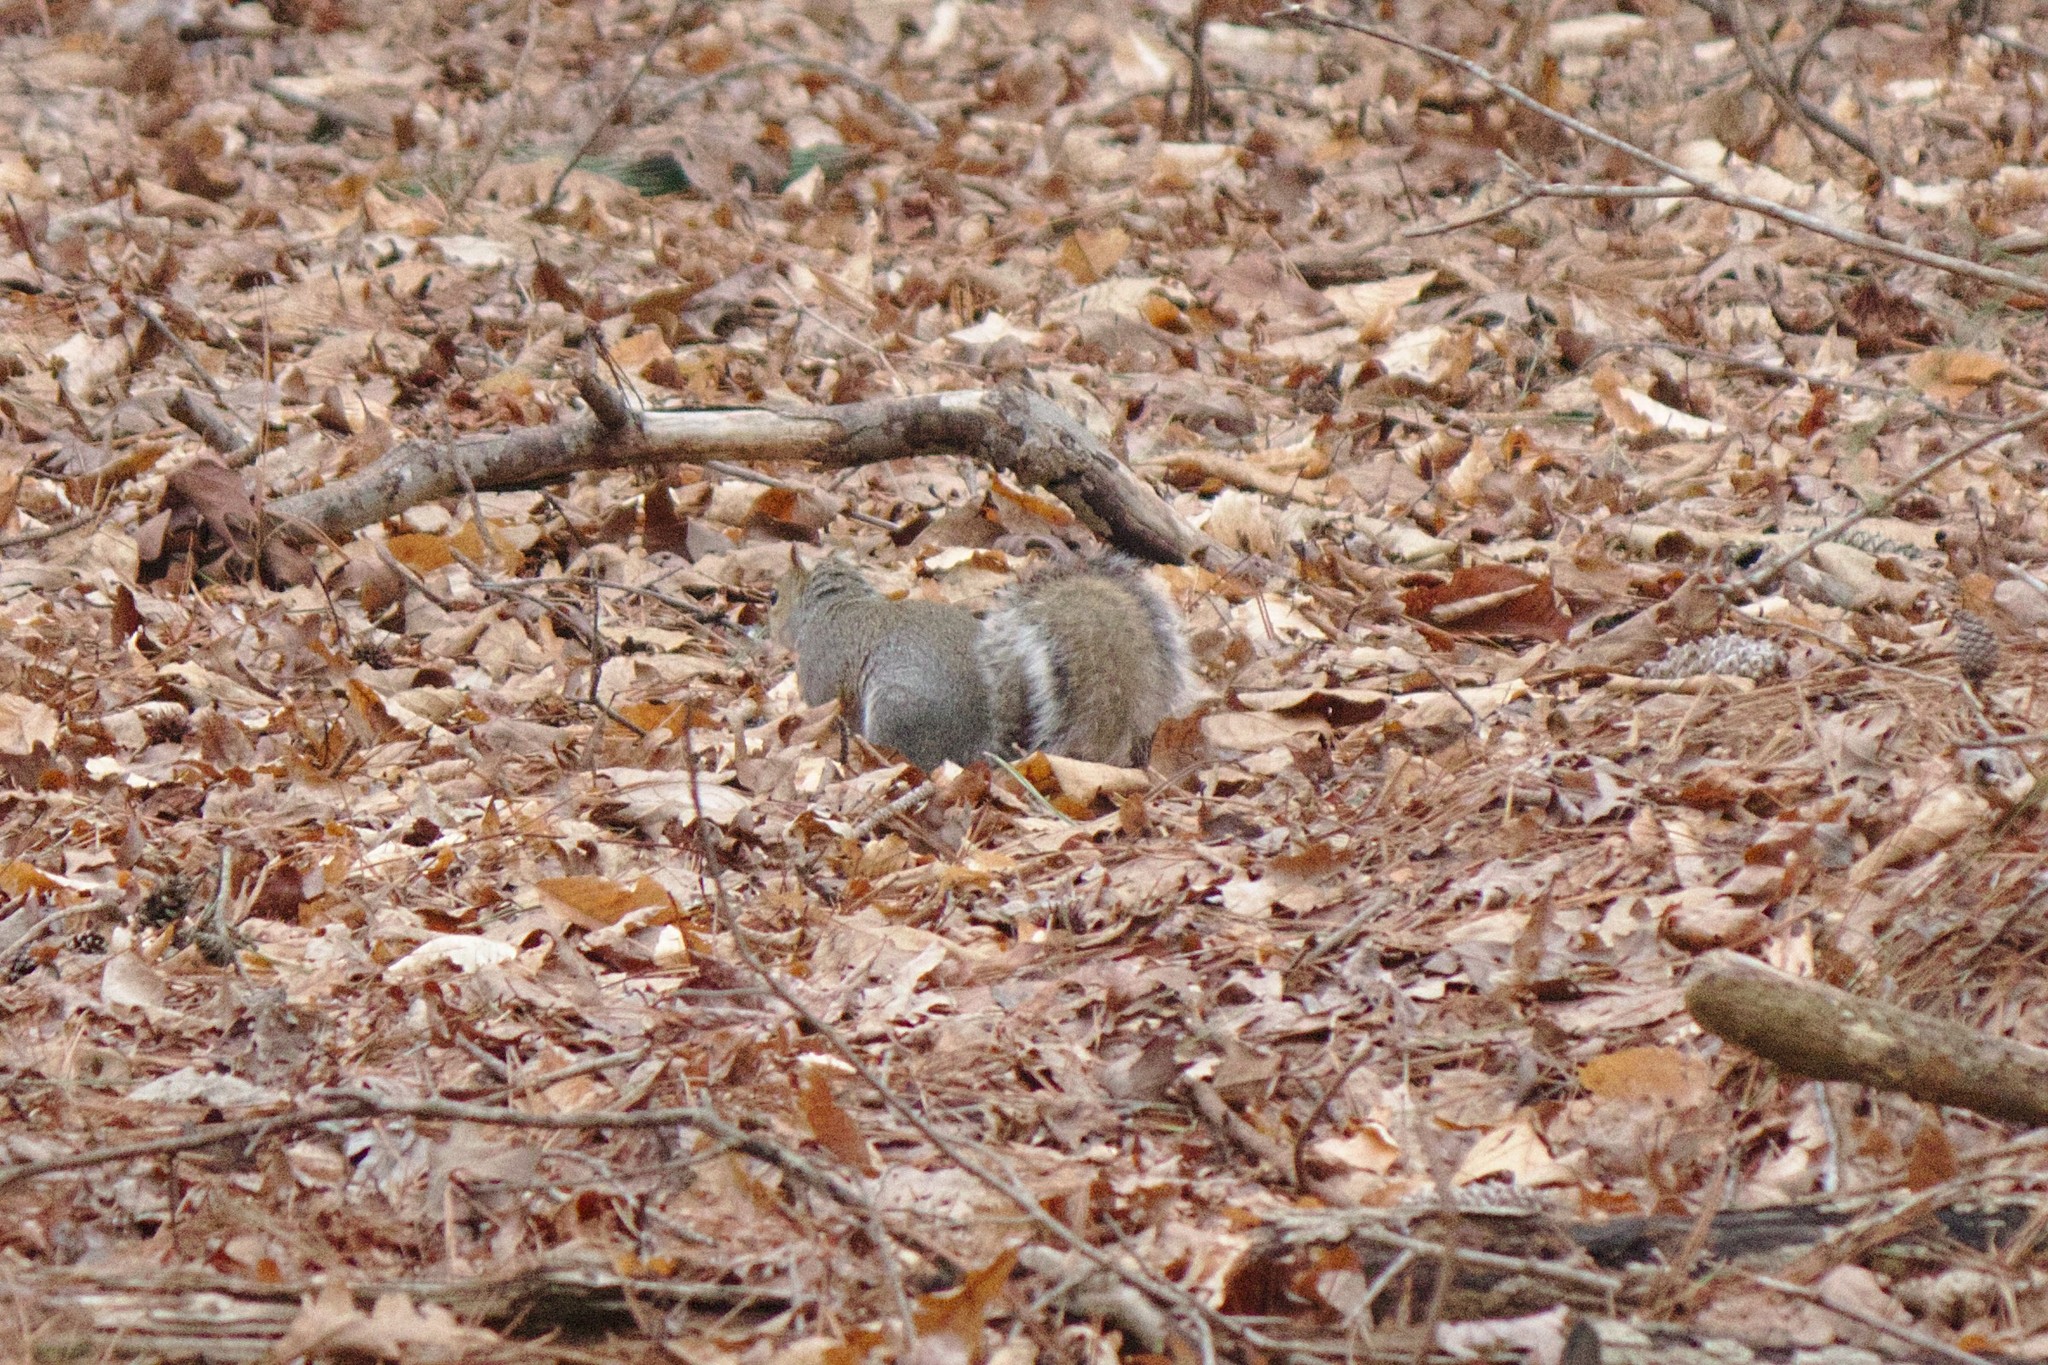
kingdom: Animalia
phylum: Chordata
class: Mammalia
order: Rodentia
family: Sciuridae
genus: Sciurus
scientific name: Sciurus carolinensis
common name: Eastern gray squirrel
